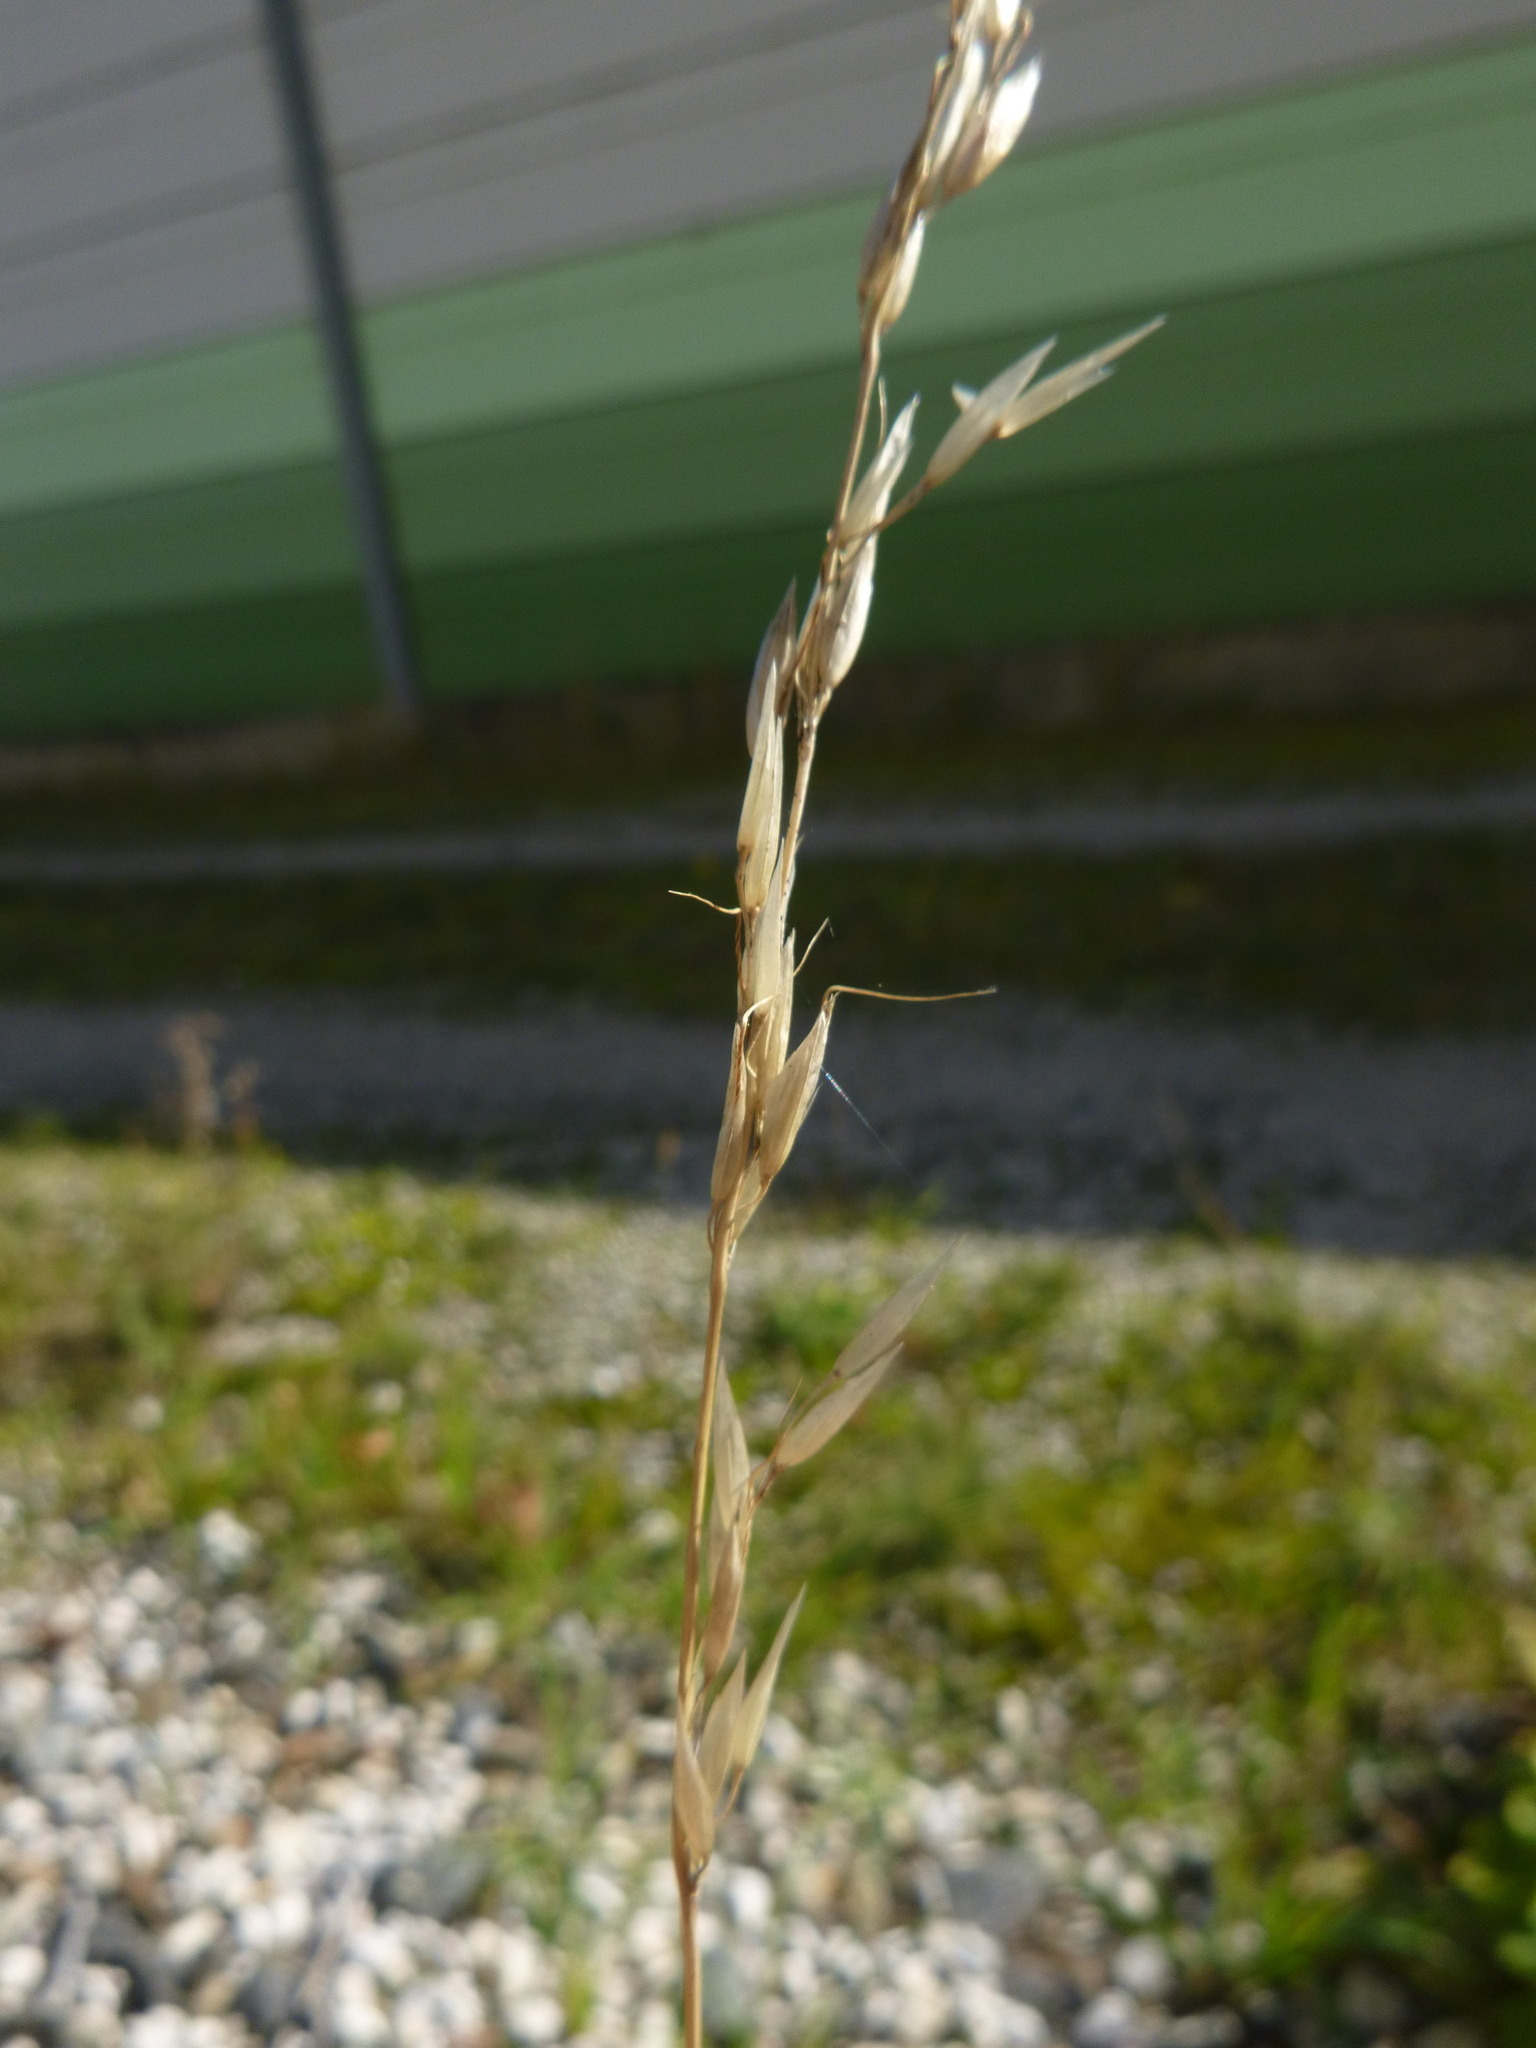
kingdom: Plantae
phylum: Tracheophyta
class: Liliopsida
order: Poales
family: Poaceae
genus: Arrhenatherum
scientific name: Arrhenatherum elatius
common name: Tall oatgrass
